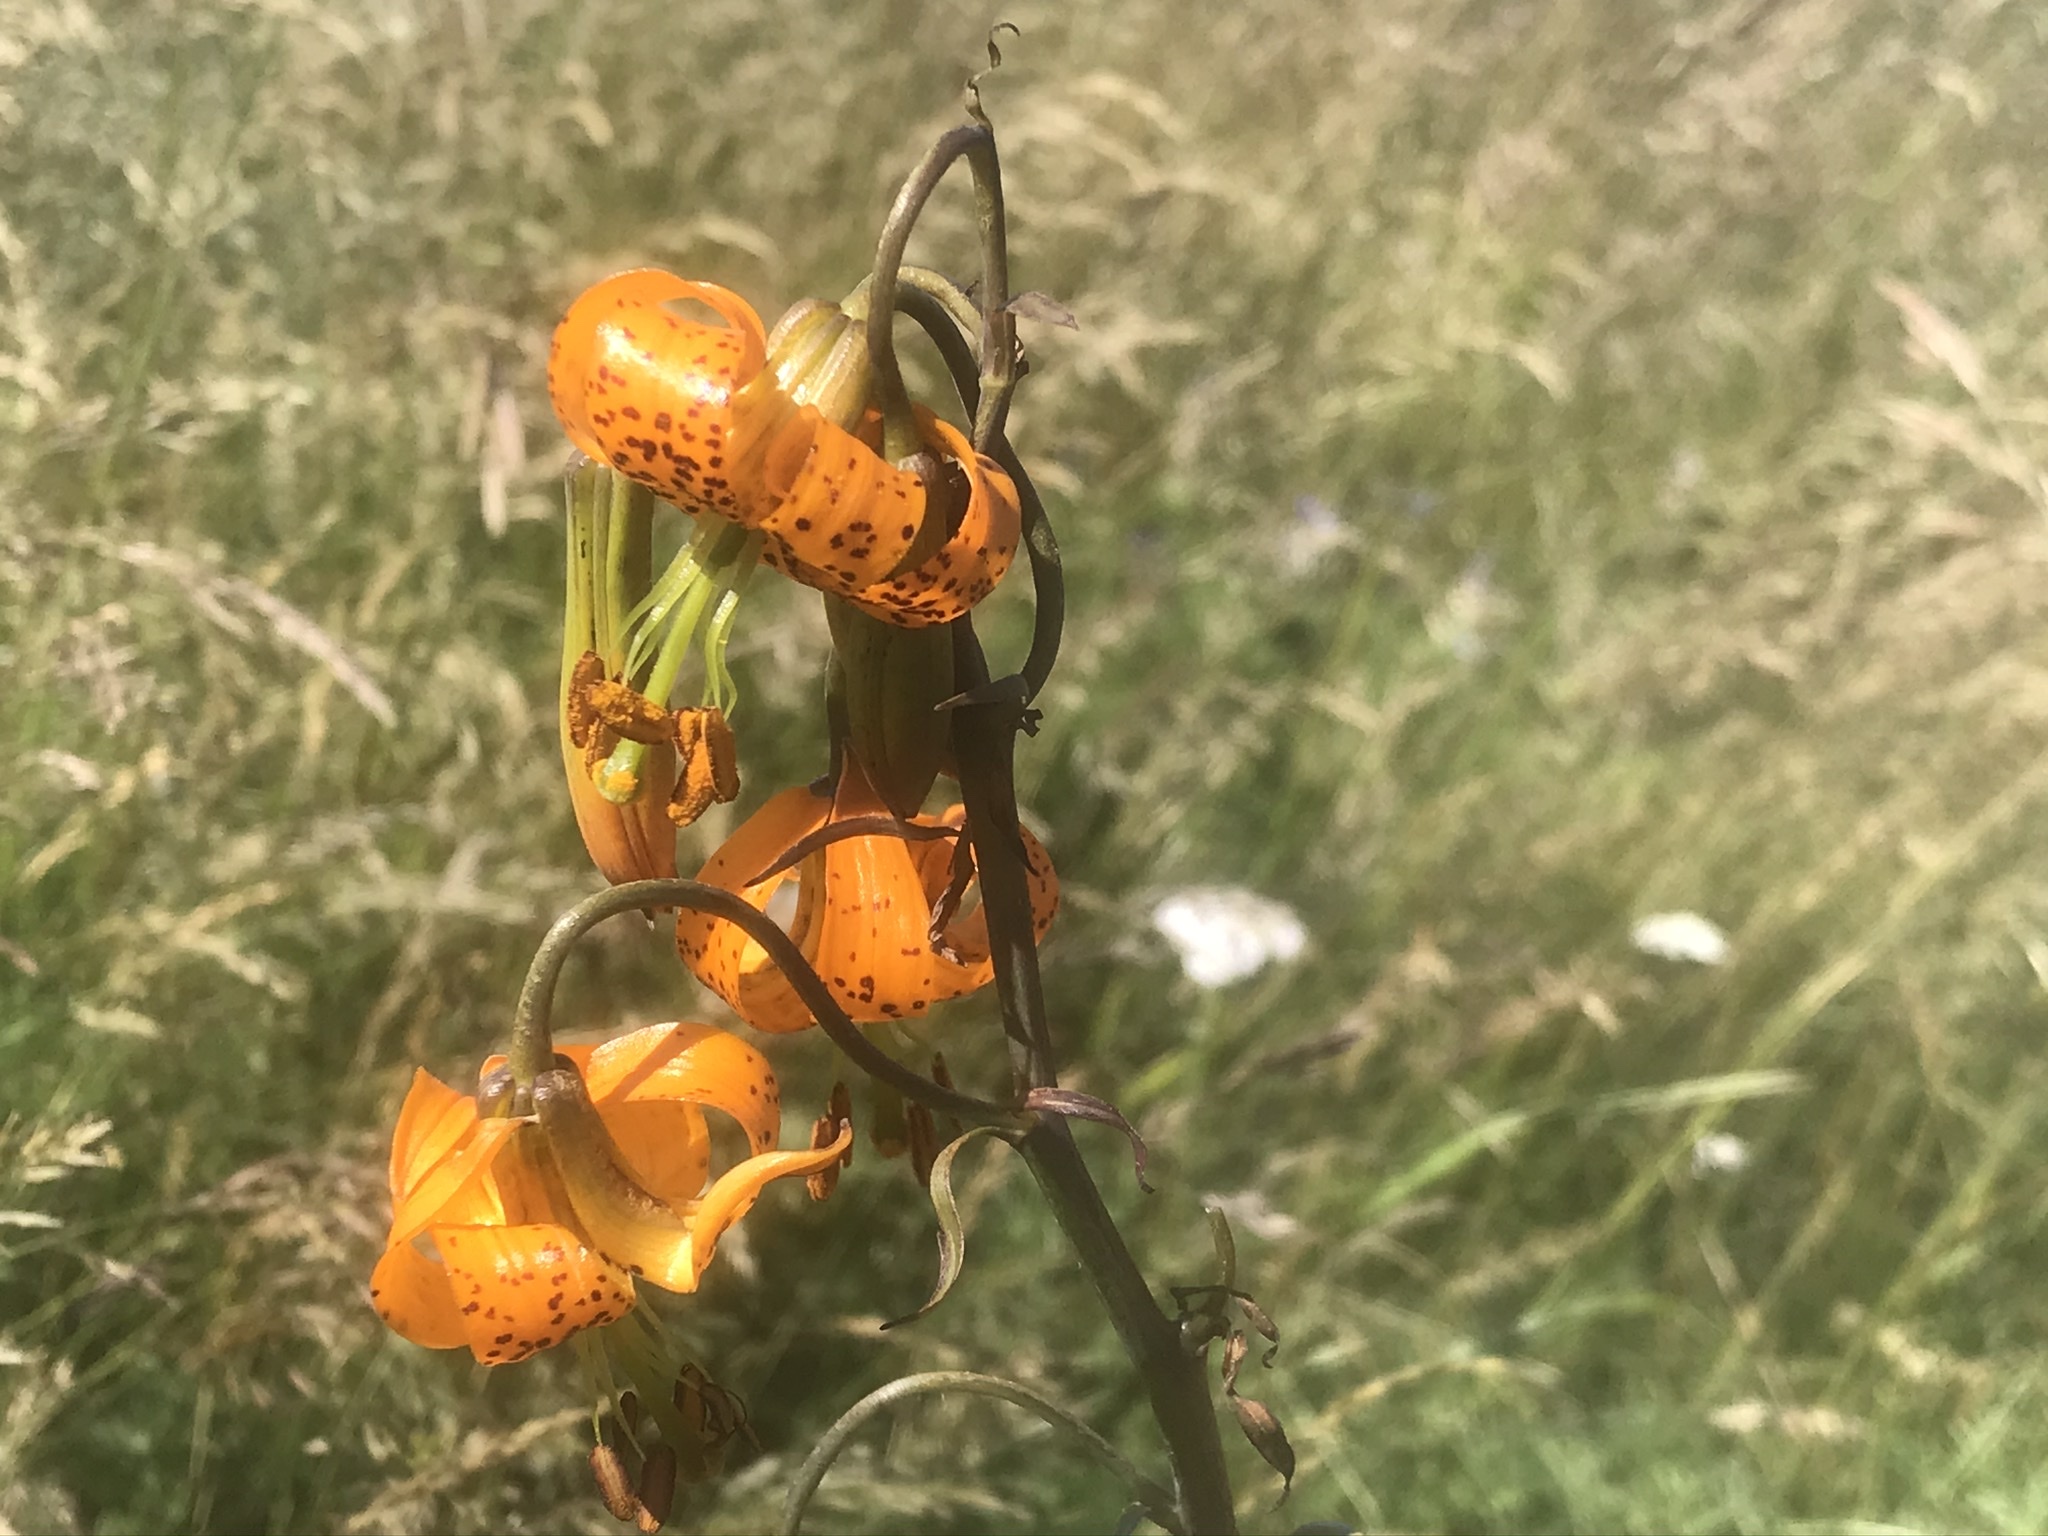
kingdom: Plantae
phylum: Tracheophyta
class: Liliopsida
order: Liliales
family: Liliaceae
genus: Lilium
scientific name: Lilium columbianum
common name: Columbia lily
